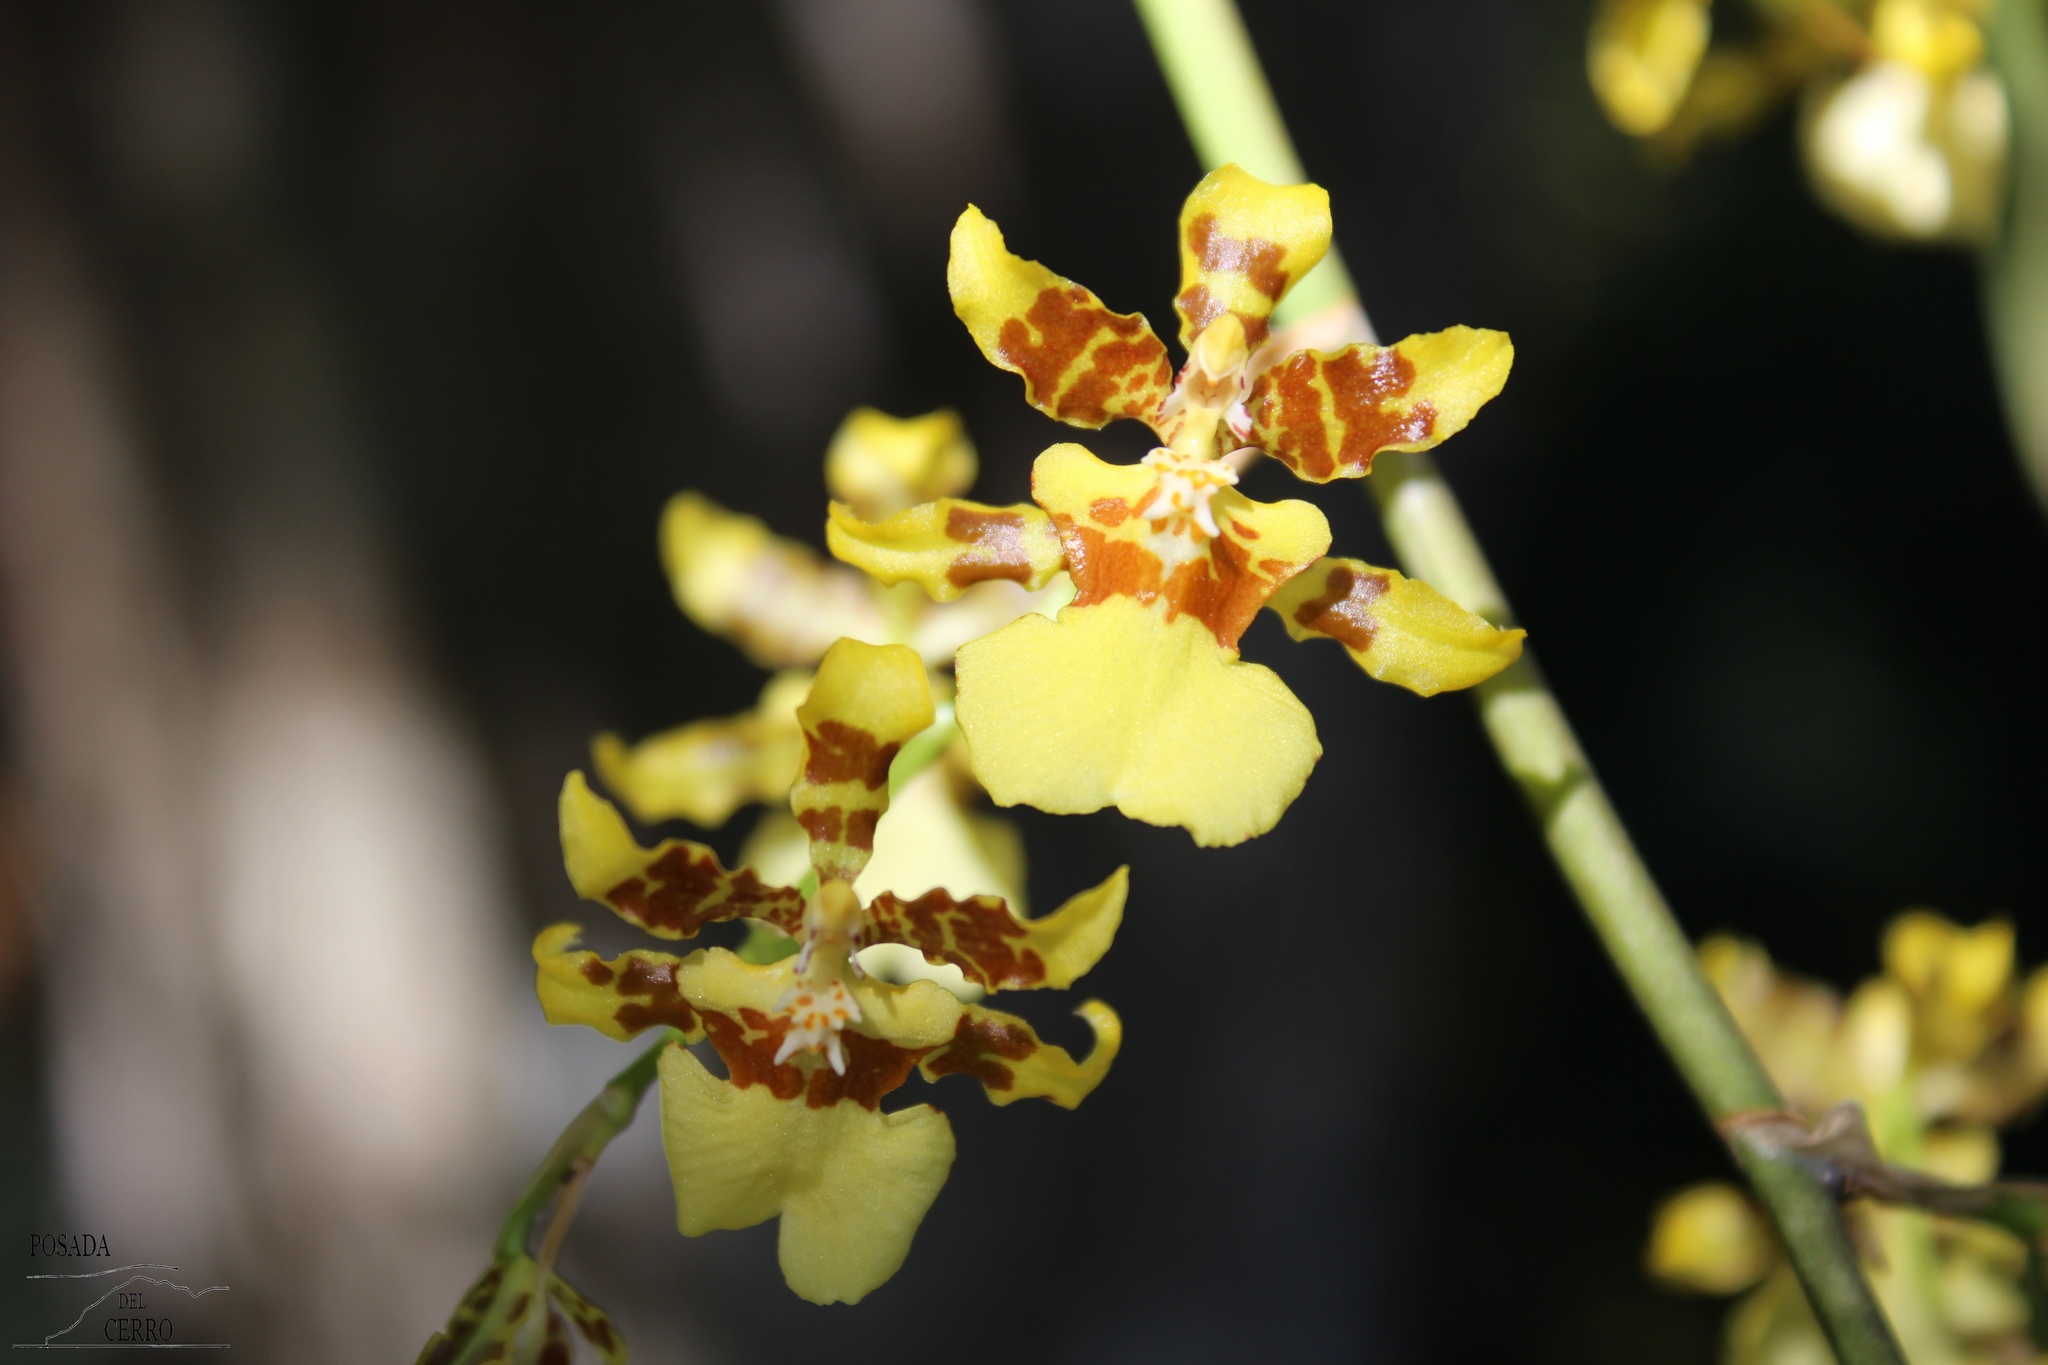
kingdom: Plantae
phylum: Tracheophyta
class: Liliopsida
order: Asparagales
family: Orchidaceae
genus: Oncidium
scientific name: Oncidium sphacelatum
